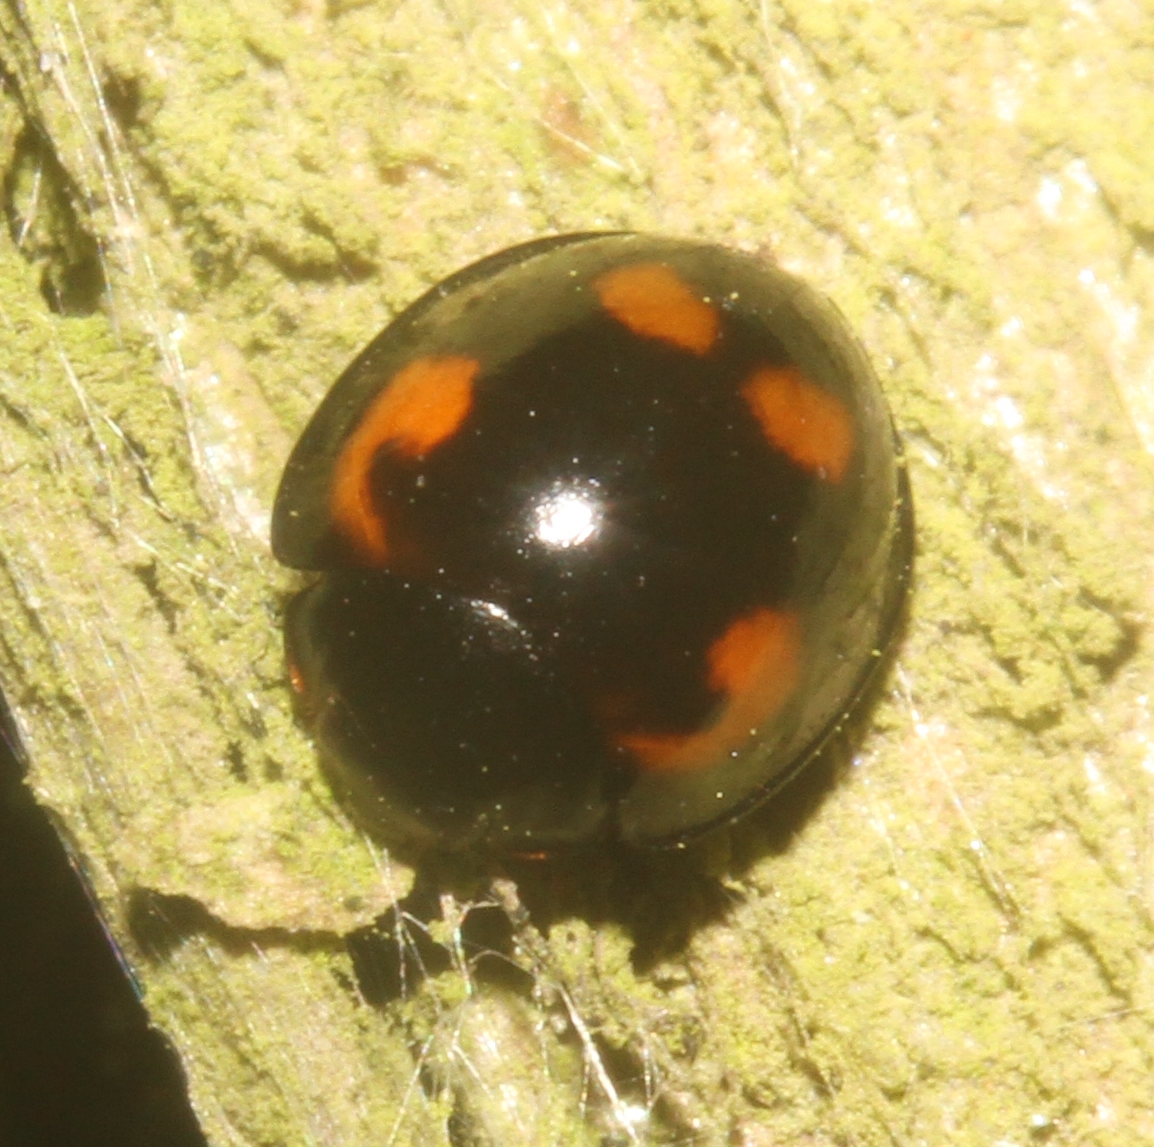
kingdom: Animalia
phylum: Arthropoda
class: Insecta
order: Coleoptera
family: Coccinellidae
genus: Brumus
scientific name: Brumus quadripustulatus
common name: Ladybird beetle
